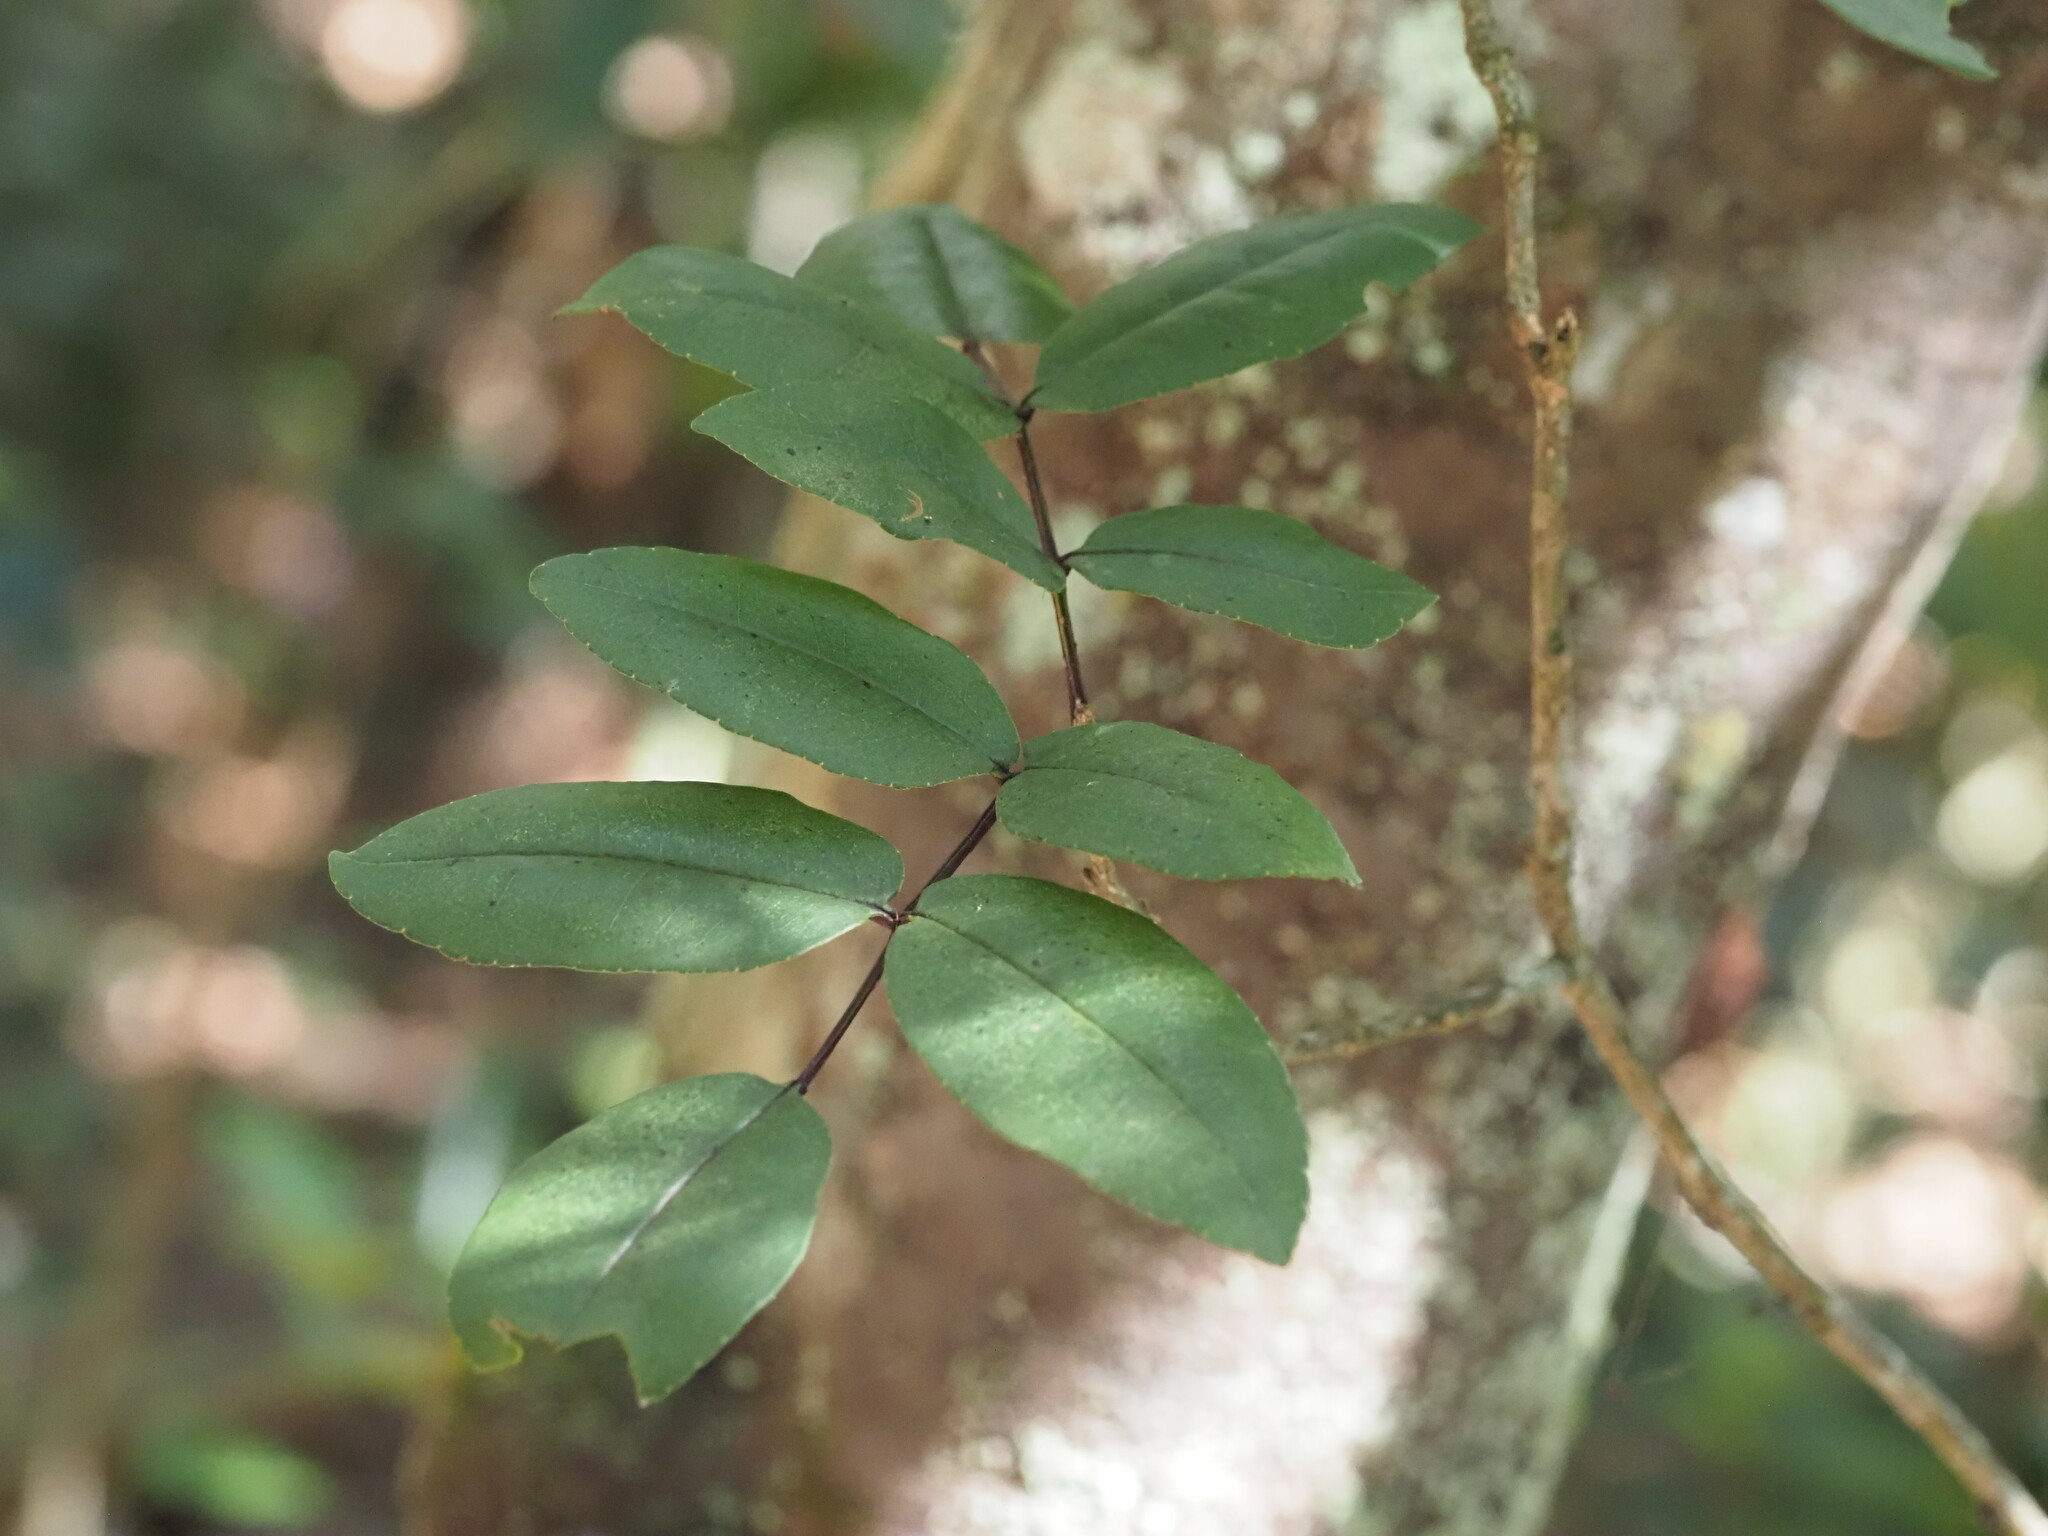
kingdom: Plantae
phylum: Tracheophyta
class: Magnoliopsida
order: Sapindales
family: Rutaceae
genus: Zanthoxylum
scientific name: Zanthoxylum kauaense
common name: Kauai prickly-ash
